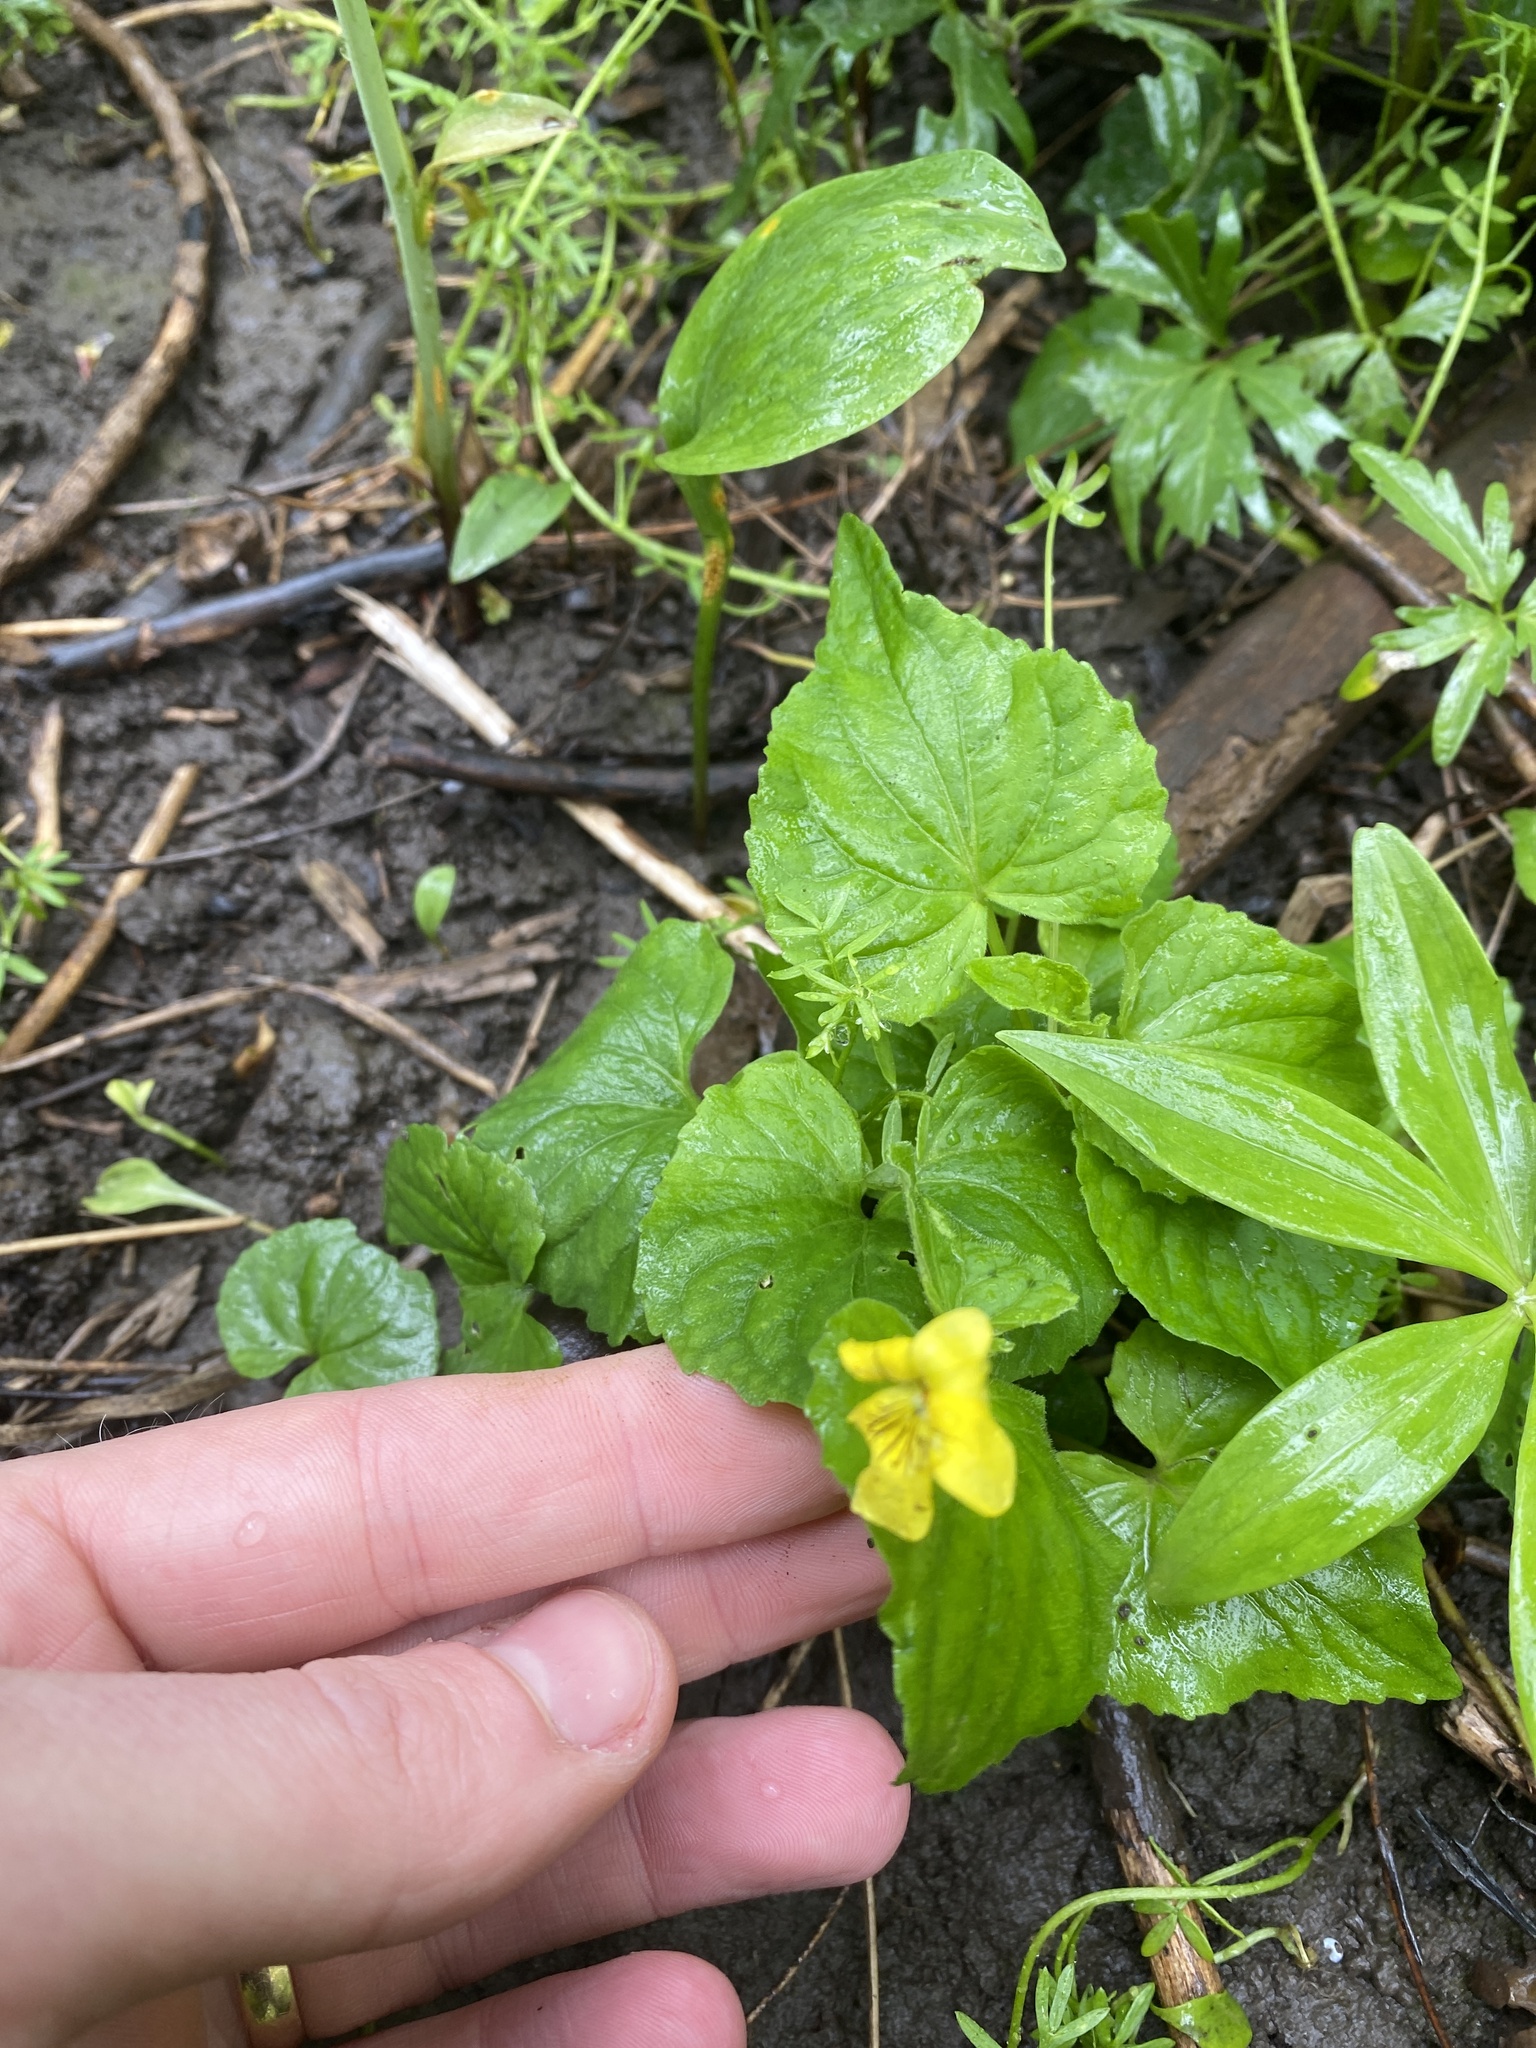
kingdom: Plantae
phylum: Tracheophyta
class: Magnoliopsida
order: Malpighiales
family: Violaceae
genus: Viola
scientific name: Viola eriocarpa
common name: Smooth yellow violet
